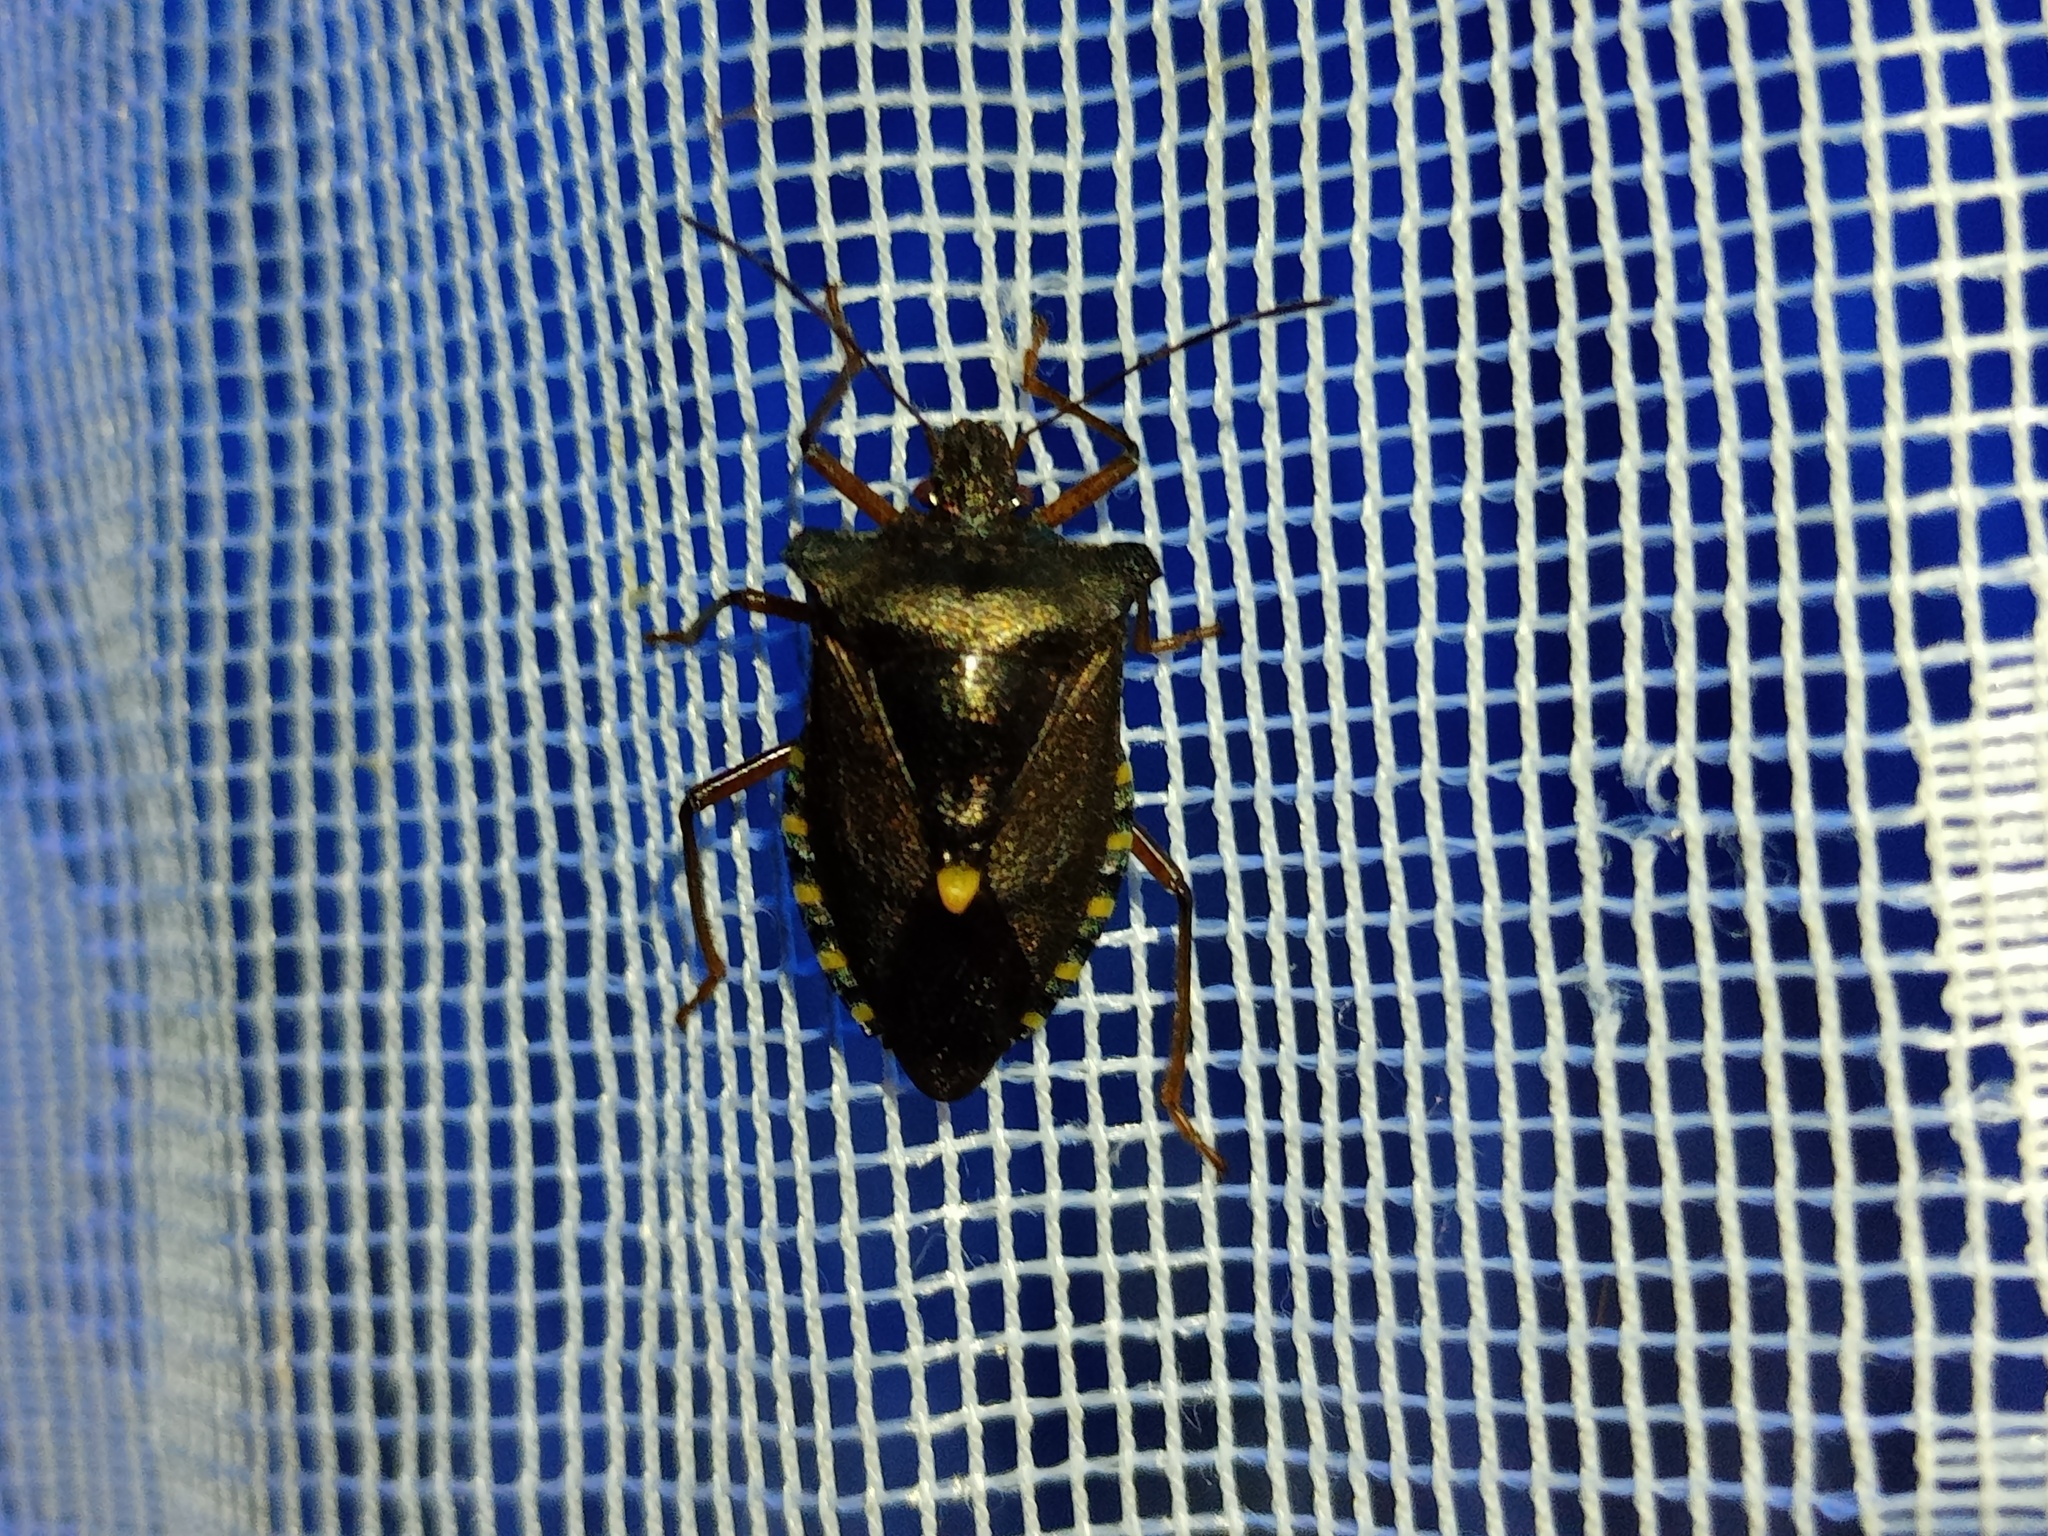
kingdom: Animalia
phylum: Arthropoda
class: Insecta
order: Hemiptera
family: Pentatomidae
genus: Pentatoma
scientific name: Pentatoma rufipes
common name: Forest bug
